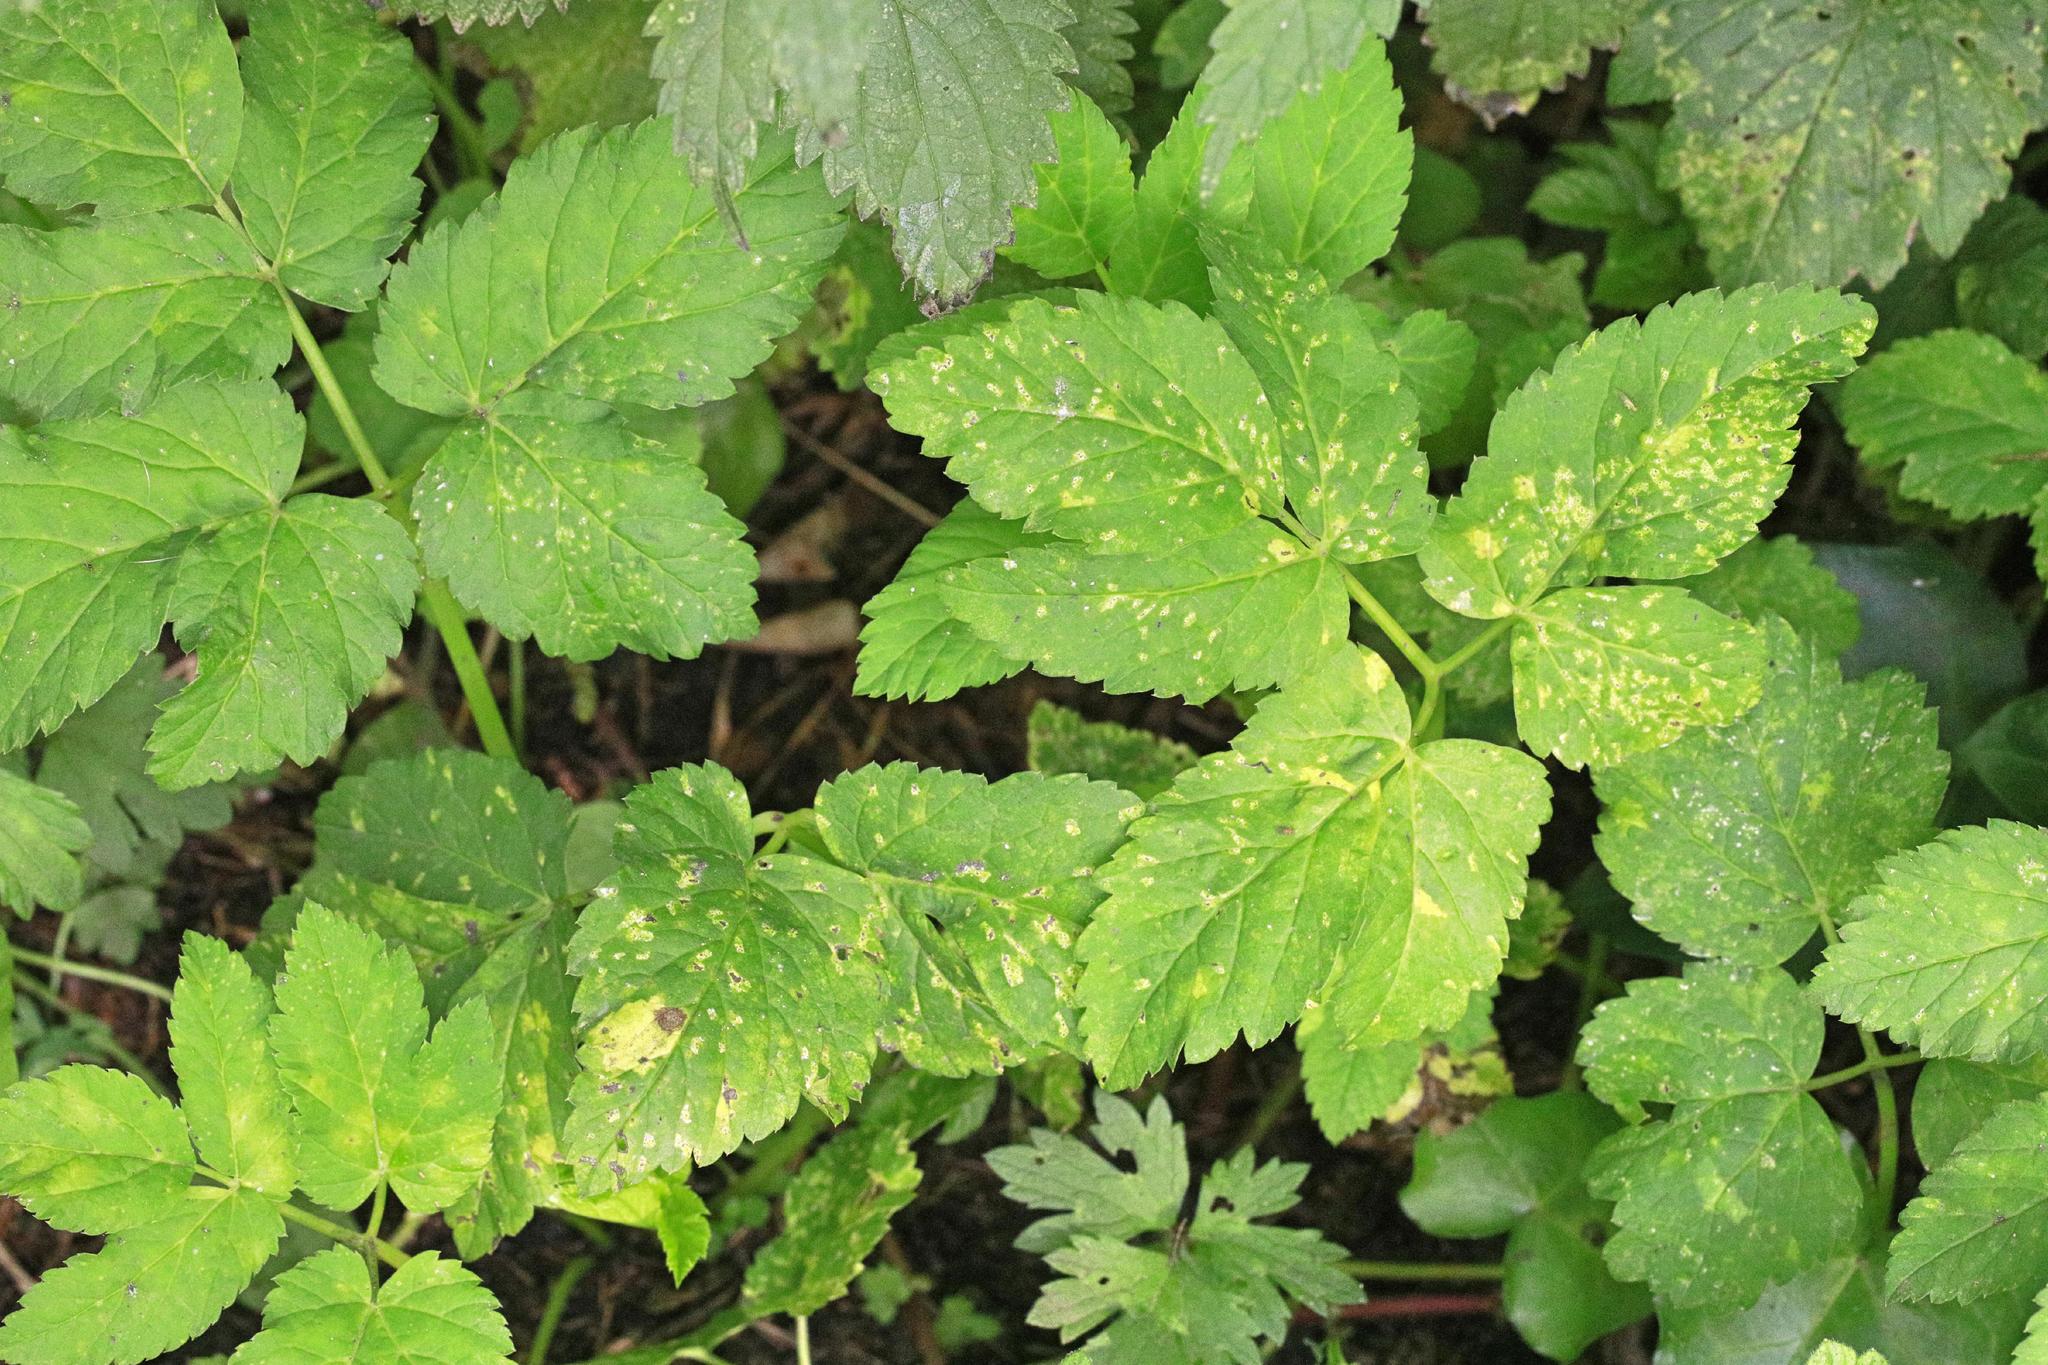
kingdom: Plantae
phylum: Tracheophyta
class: Magnoliopsida
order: Apiales
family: Apiaceae
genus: Aegopodium
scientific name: Aegopodium podagraria
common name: Ground-elder
